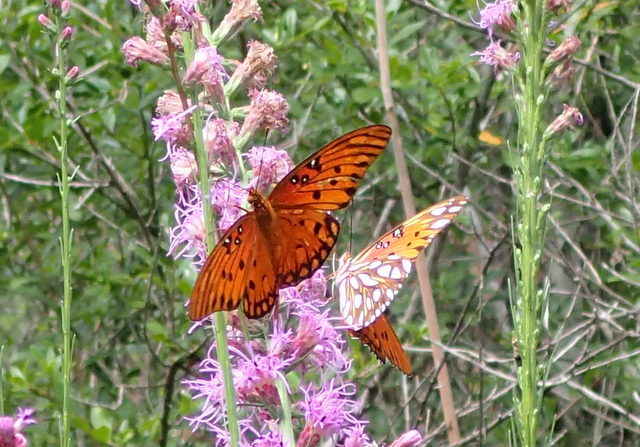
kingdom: Animalia
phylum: Arthropoda
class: Insecta
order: Lepidoptera
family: Nymphalidae
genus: Dione
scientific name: Dione vanillae
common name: Gulf fritillary
